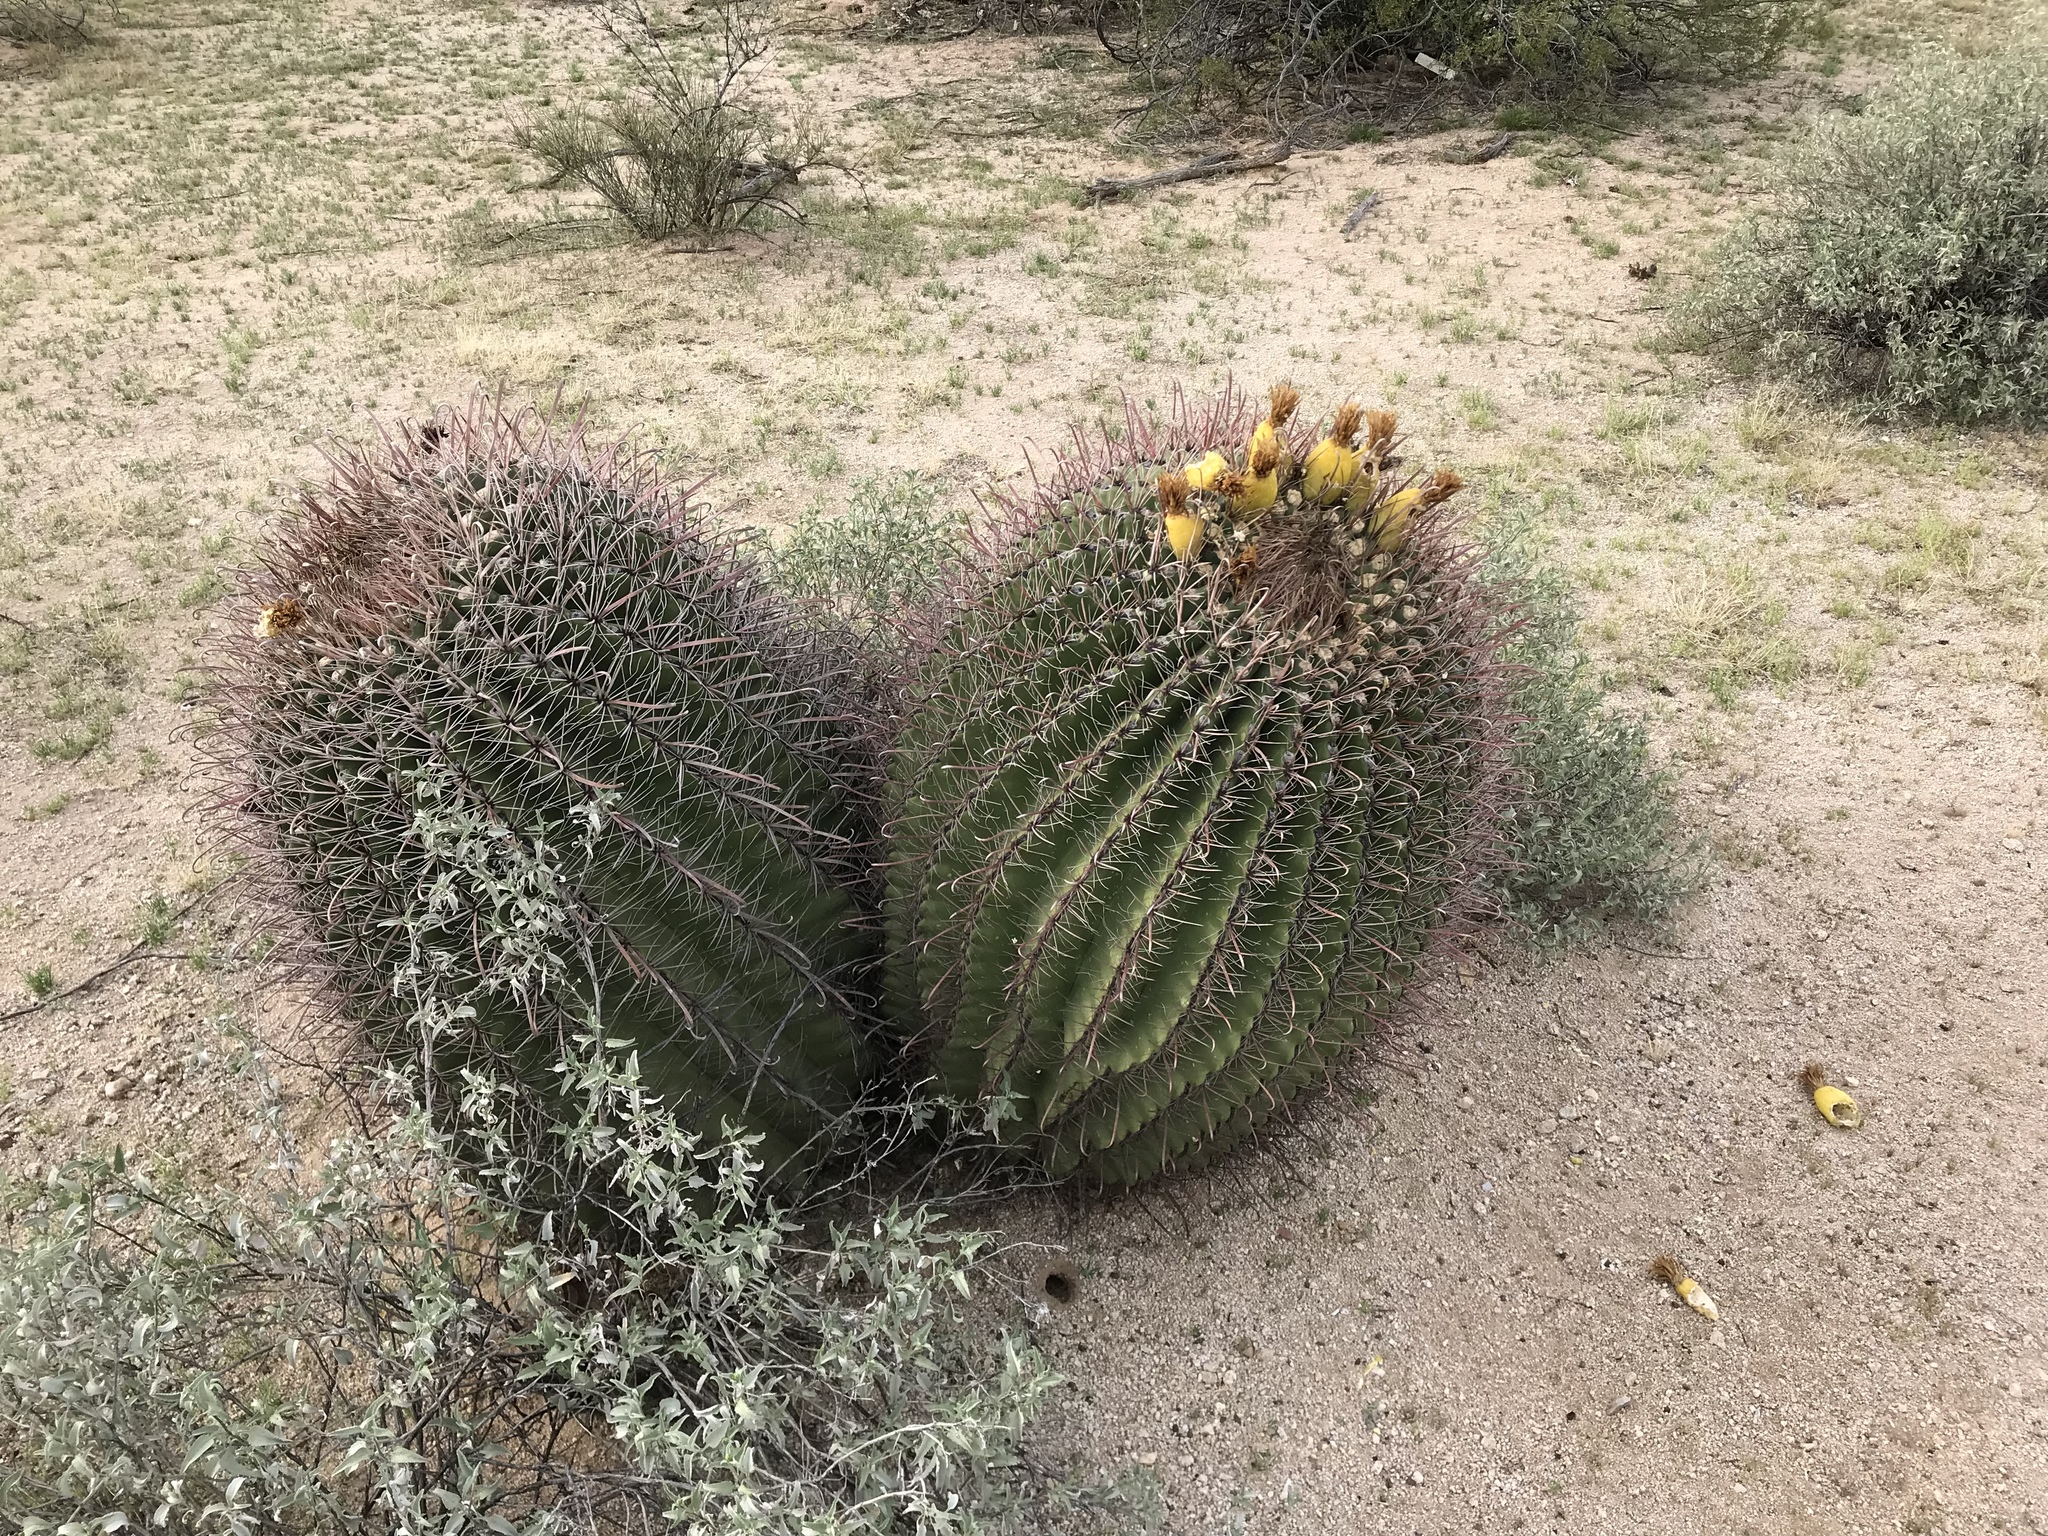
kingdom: Plantae
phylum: Tracheophyta
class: Magnoliopsida
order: Caryophyllales
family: Cactaceae
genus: Ferocactus
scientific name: Ferocactus wislizeni
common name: Candy barrel cactus
